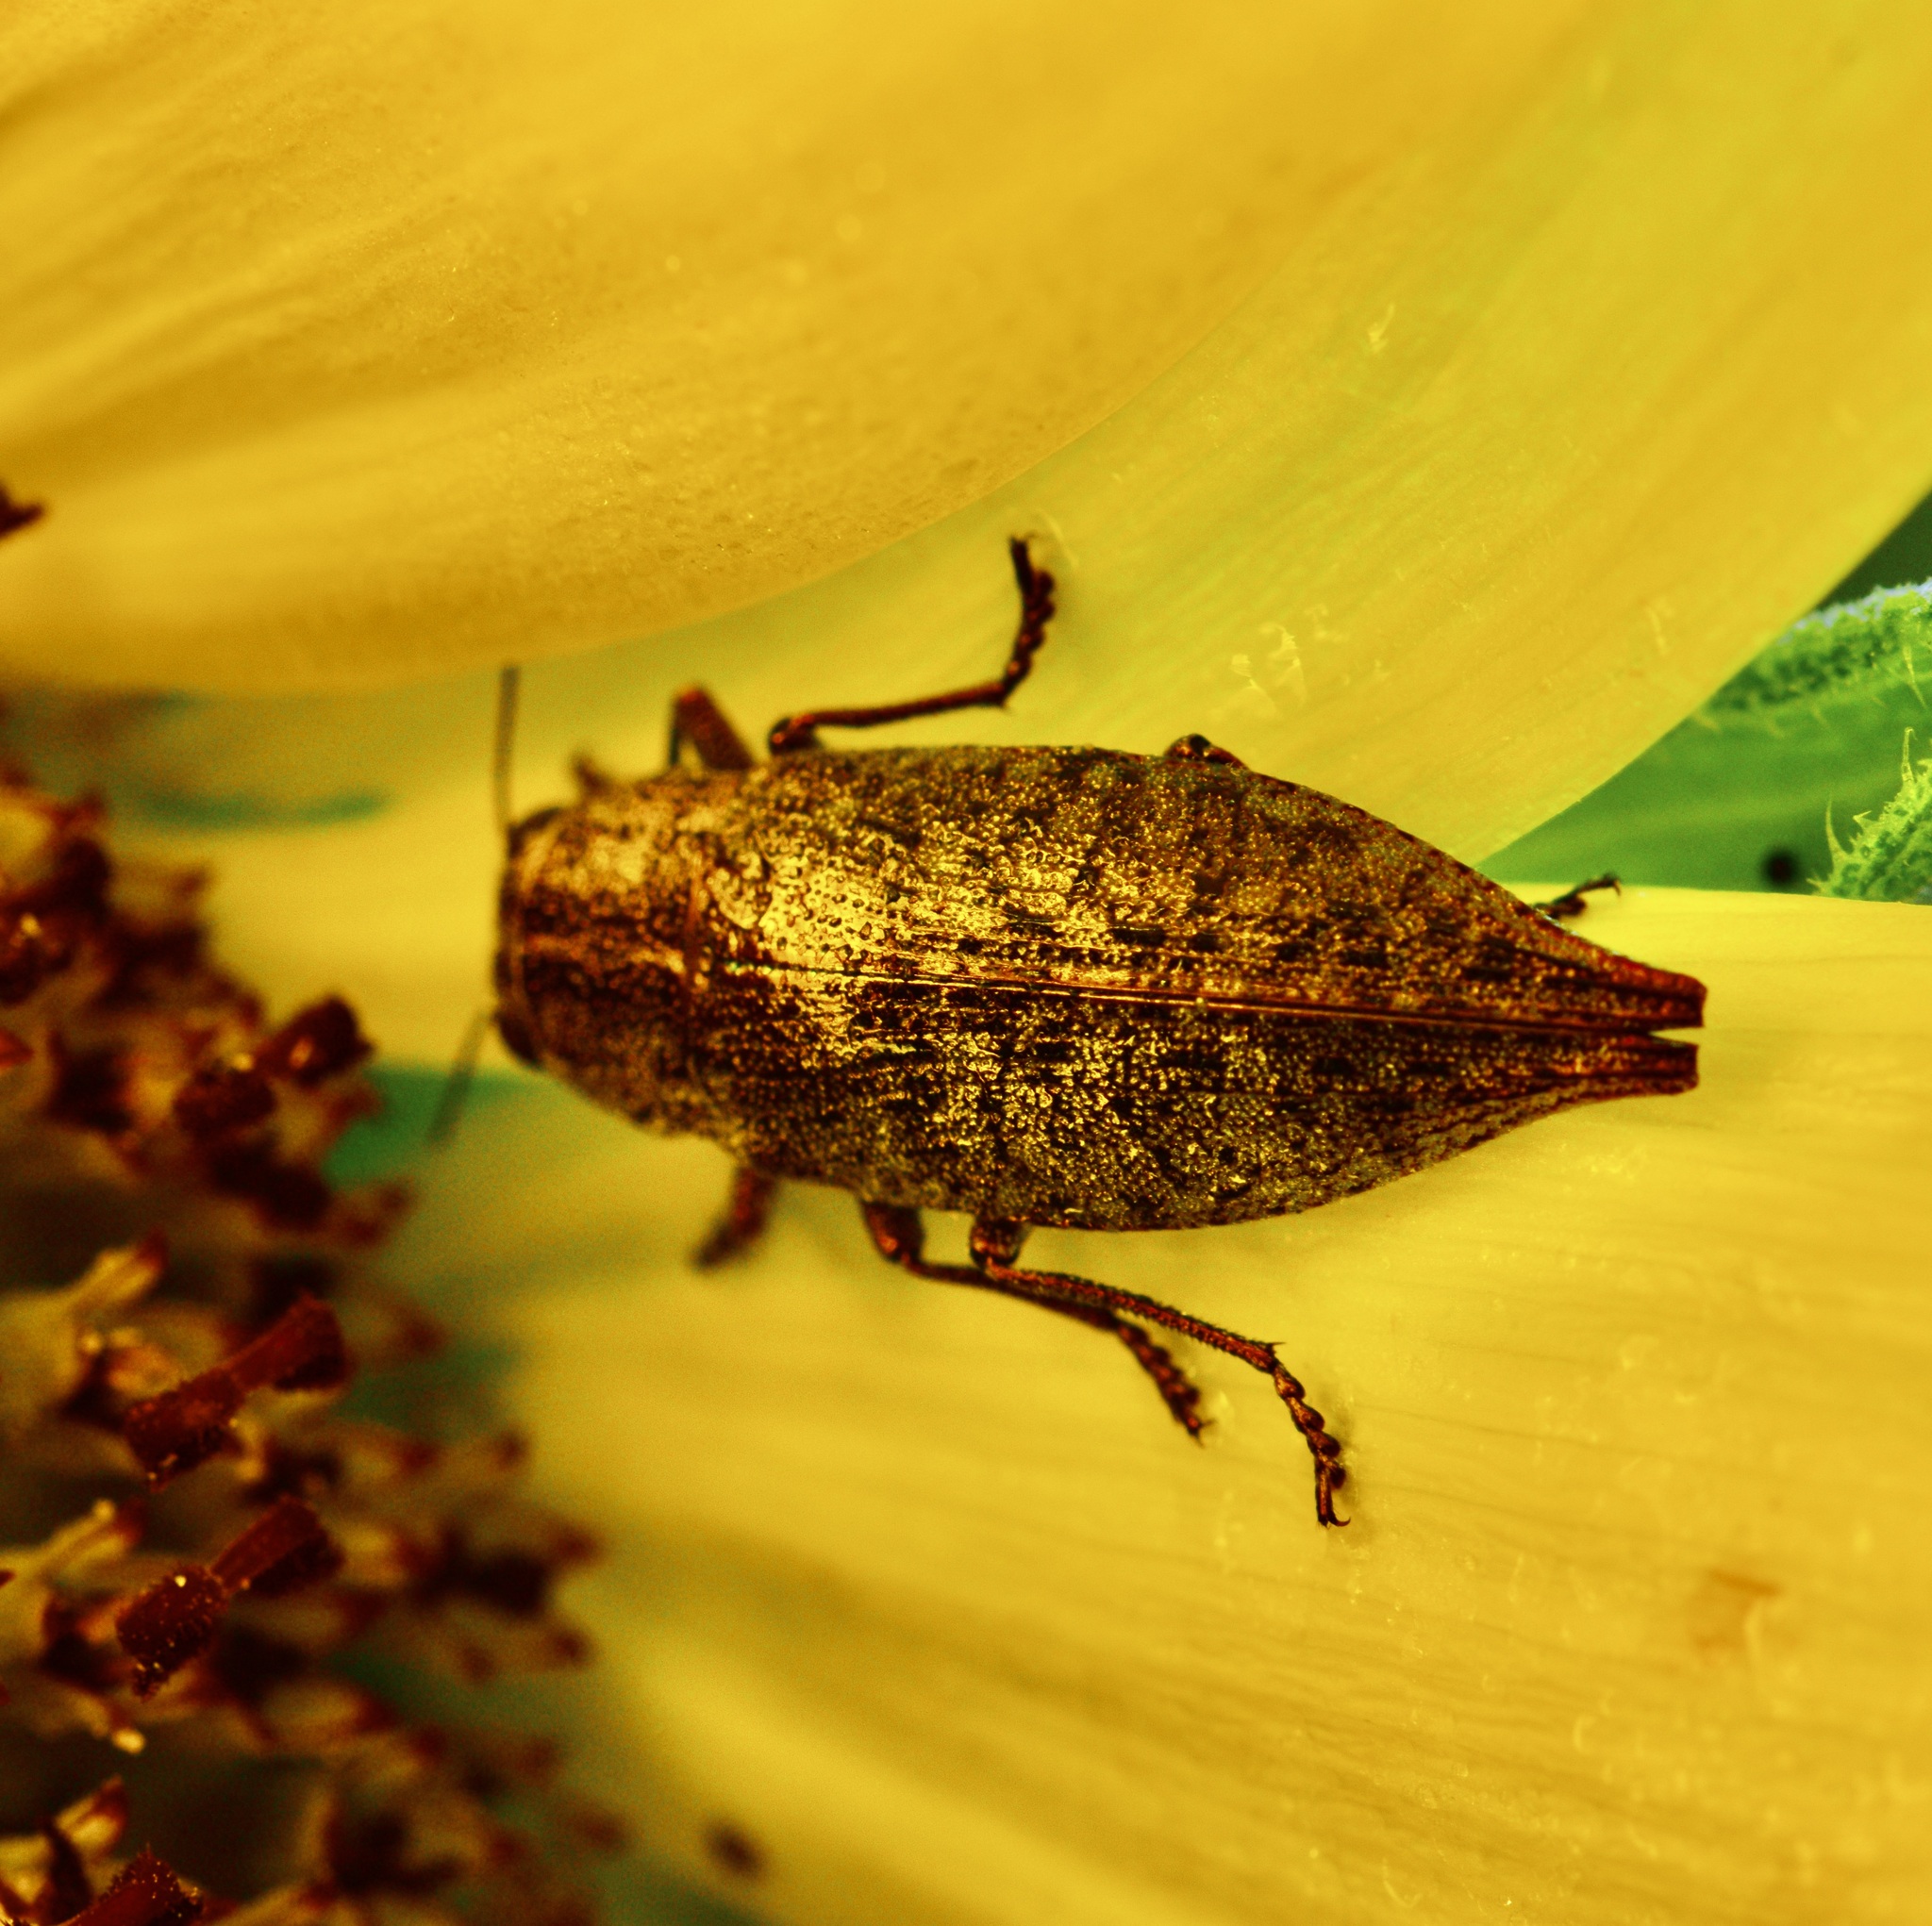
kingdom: Animalia
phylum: Arthropoda
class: Insecta
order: Coleoptera
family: Buprestidae
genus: Dicerca
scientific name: Dicerca divaricata
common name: Flat-headed hardwood borer
